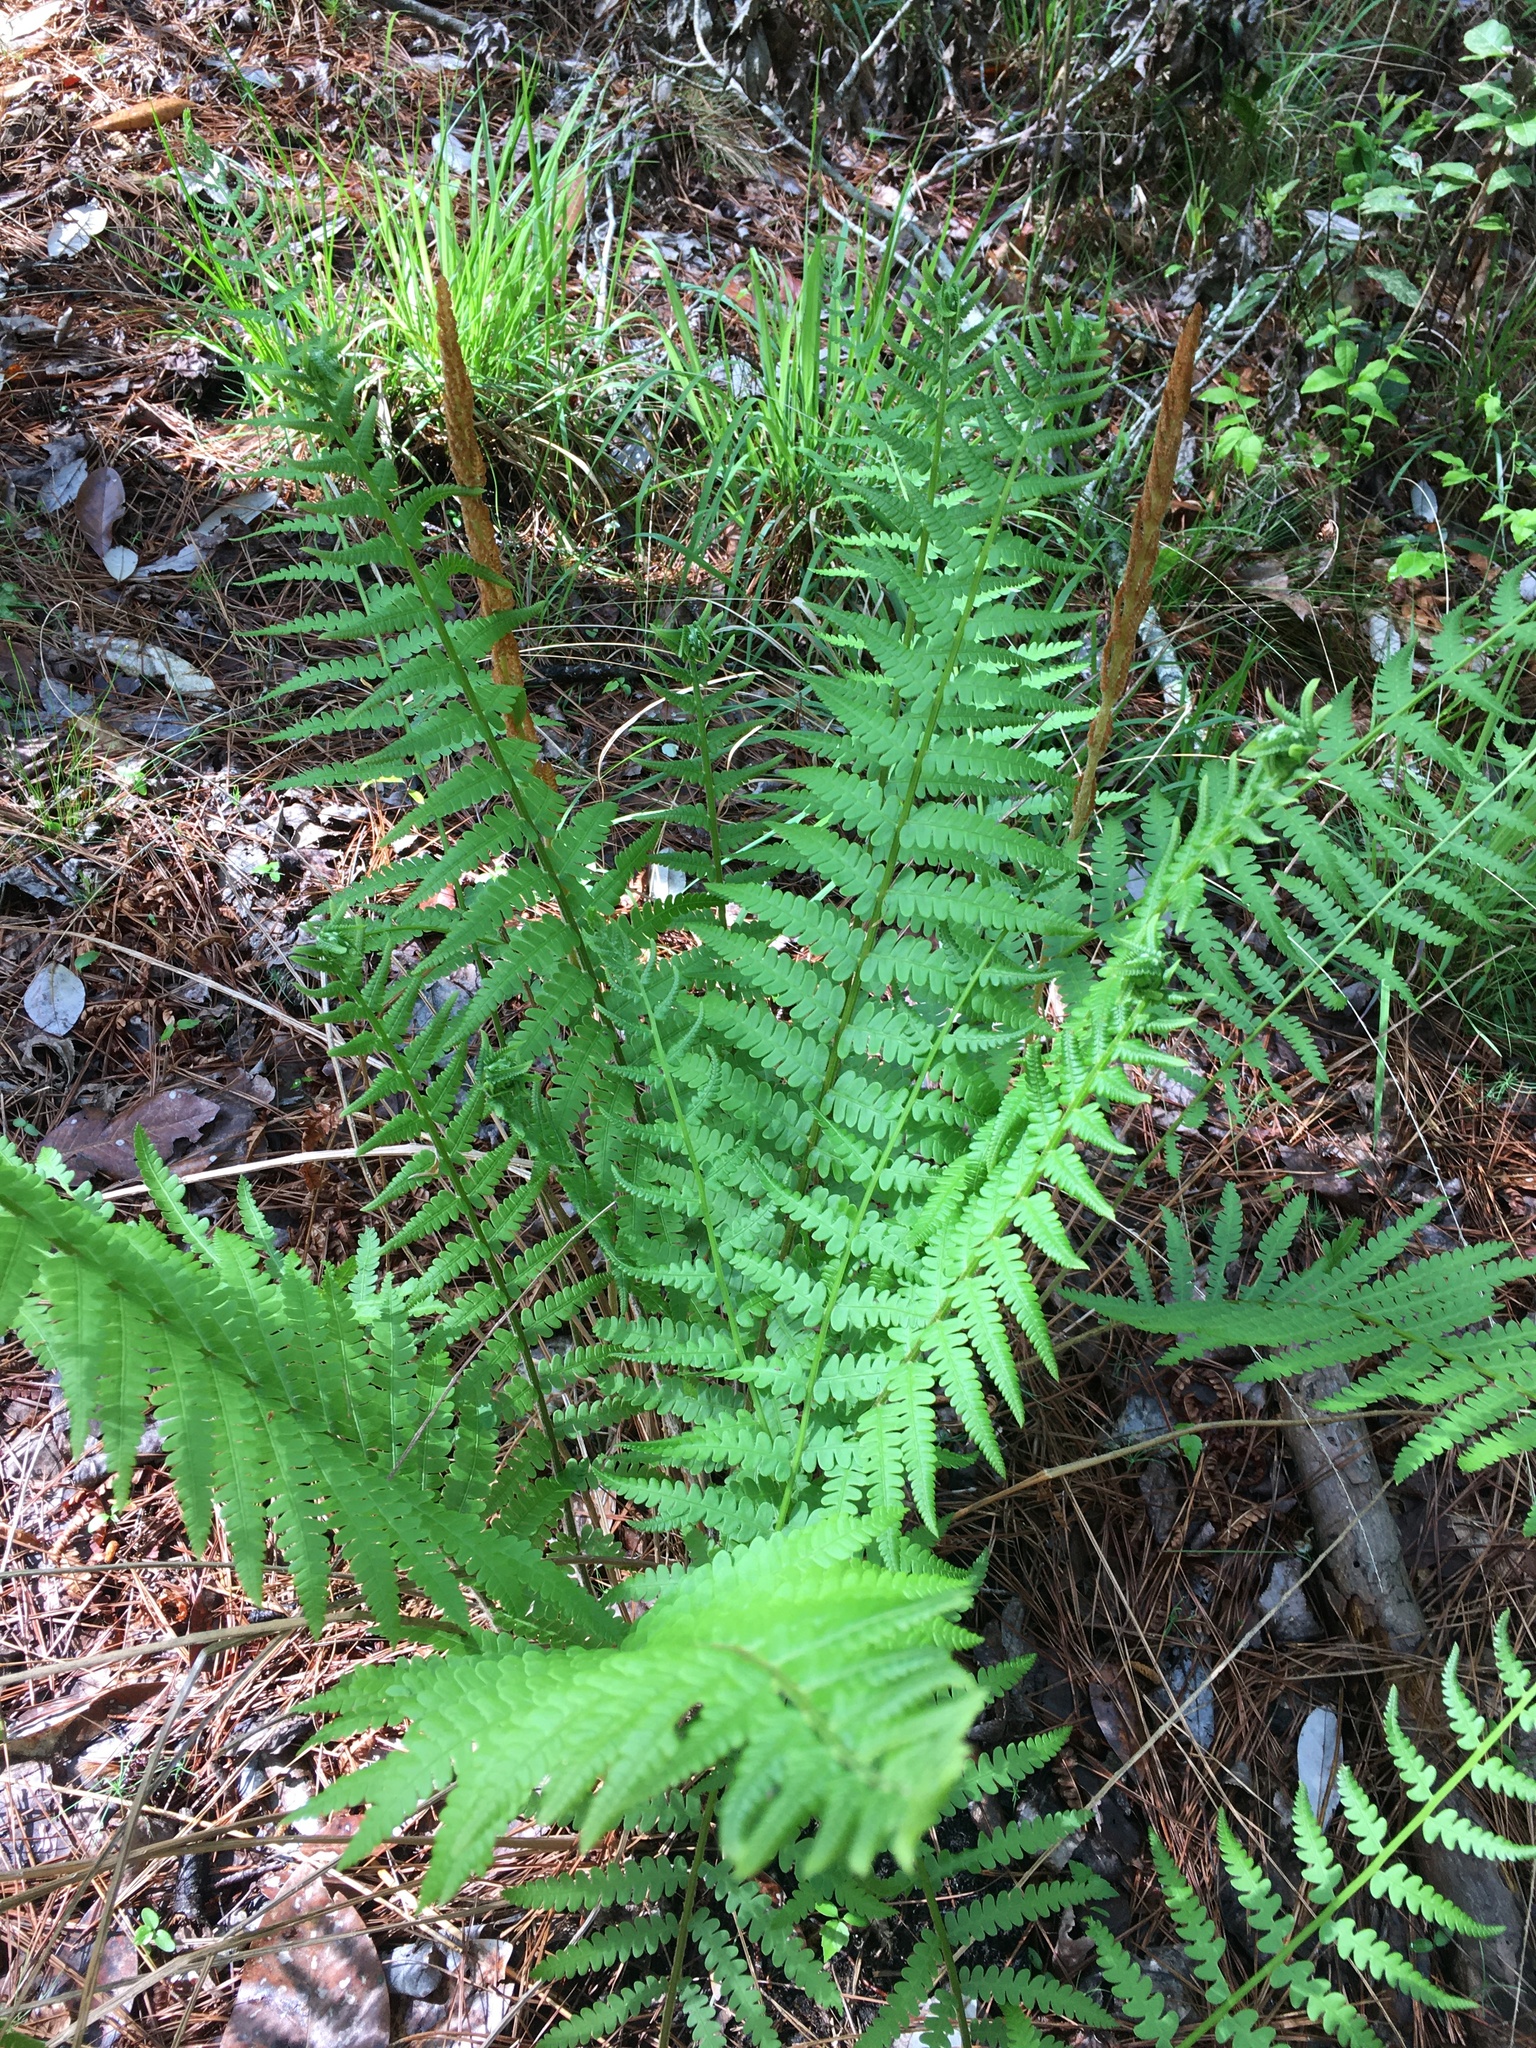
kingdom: Plantae
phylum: Tracheophyta
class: Polypodiopsida
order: Osmundales
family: Osmundaceae
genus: Osmundastrum
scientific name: Osmundastrum cinnamomeum
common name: Cinnamon fern
